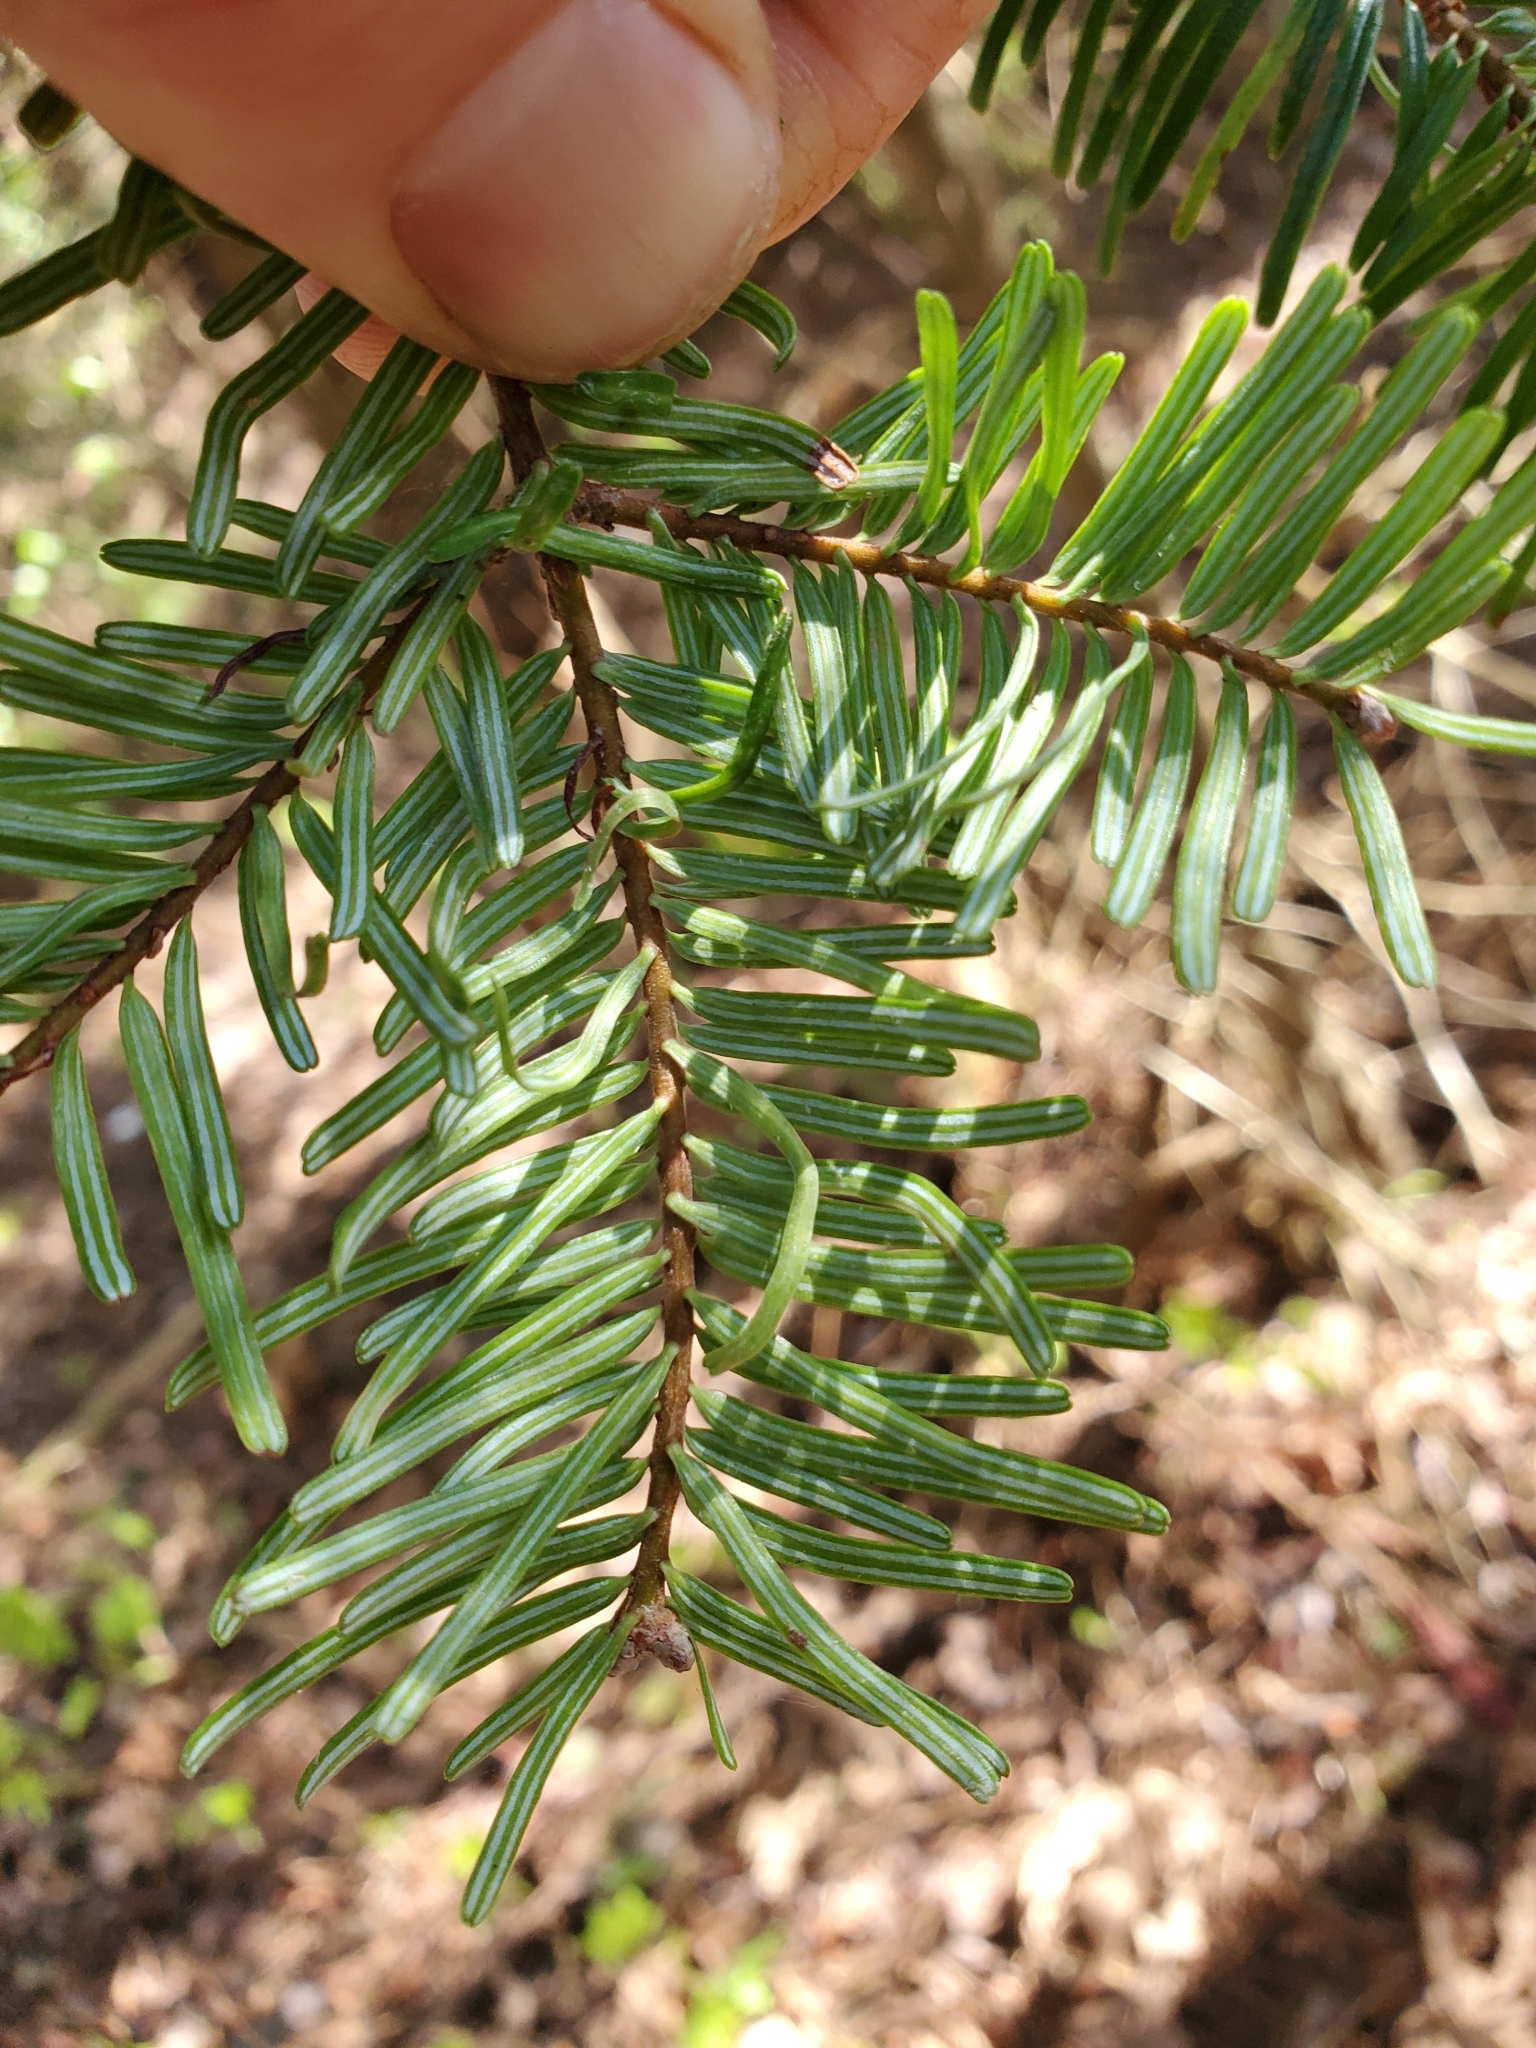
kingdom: Plantae
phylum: Tracheophyta
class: Pinopsida
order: Pinales
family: Pinaceae
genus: Abies
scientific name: Abies grandis
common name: Giant fir
